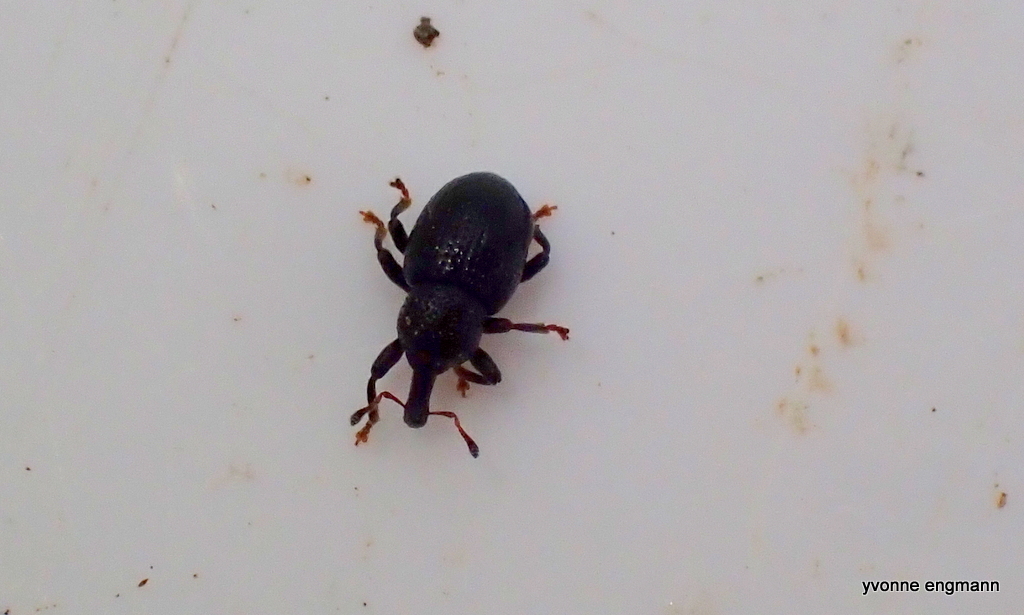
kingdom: Animalia
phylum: Arthropoda
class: Insecta
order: Coleoptera
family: Curculionidae
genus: Leiosoma
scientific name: Leiosoma deflexum
